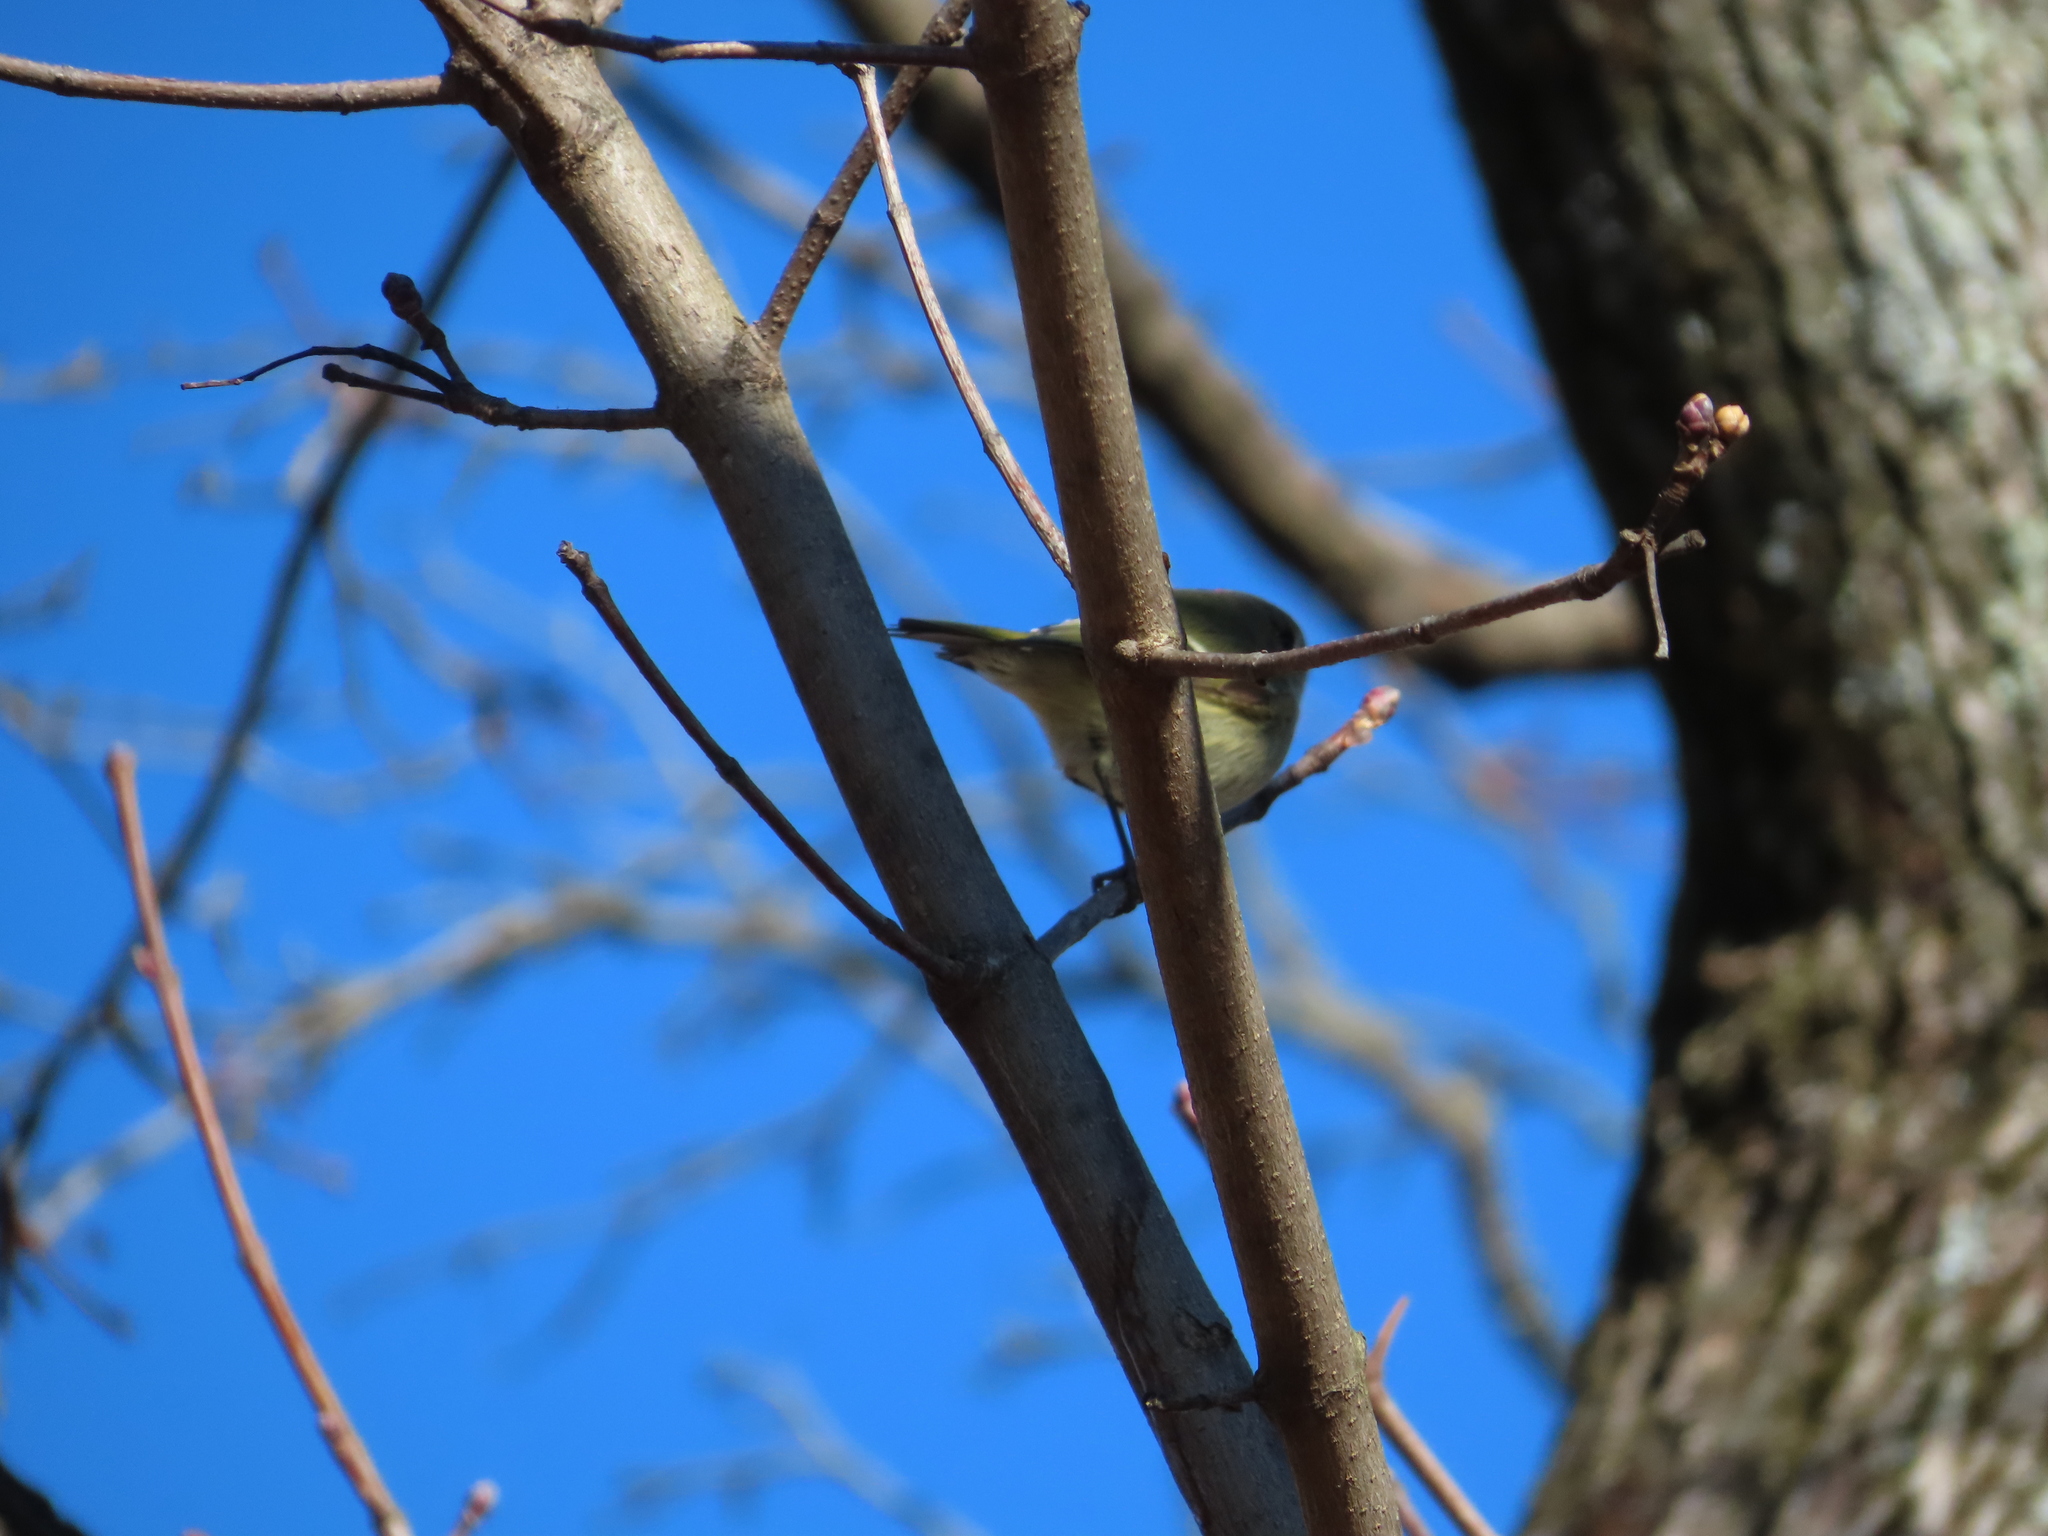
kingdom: Animalia
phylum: Chordata
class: Aves
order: Passeriformes
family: Regulidae
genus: Regulus
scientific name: Regulus calendula
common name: Ruby-crowned kinglet
